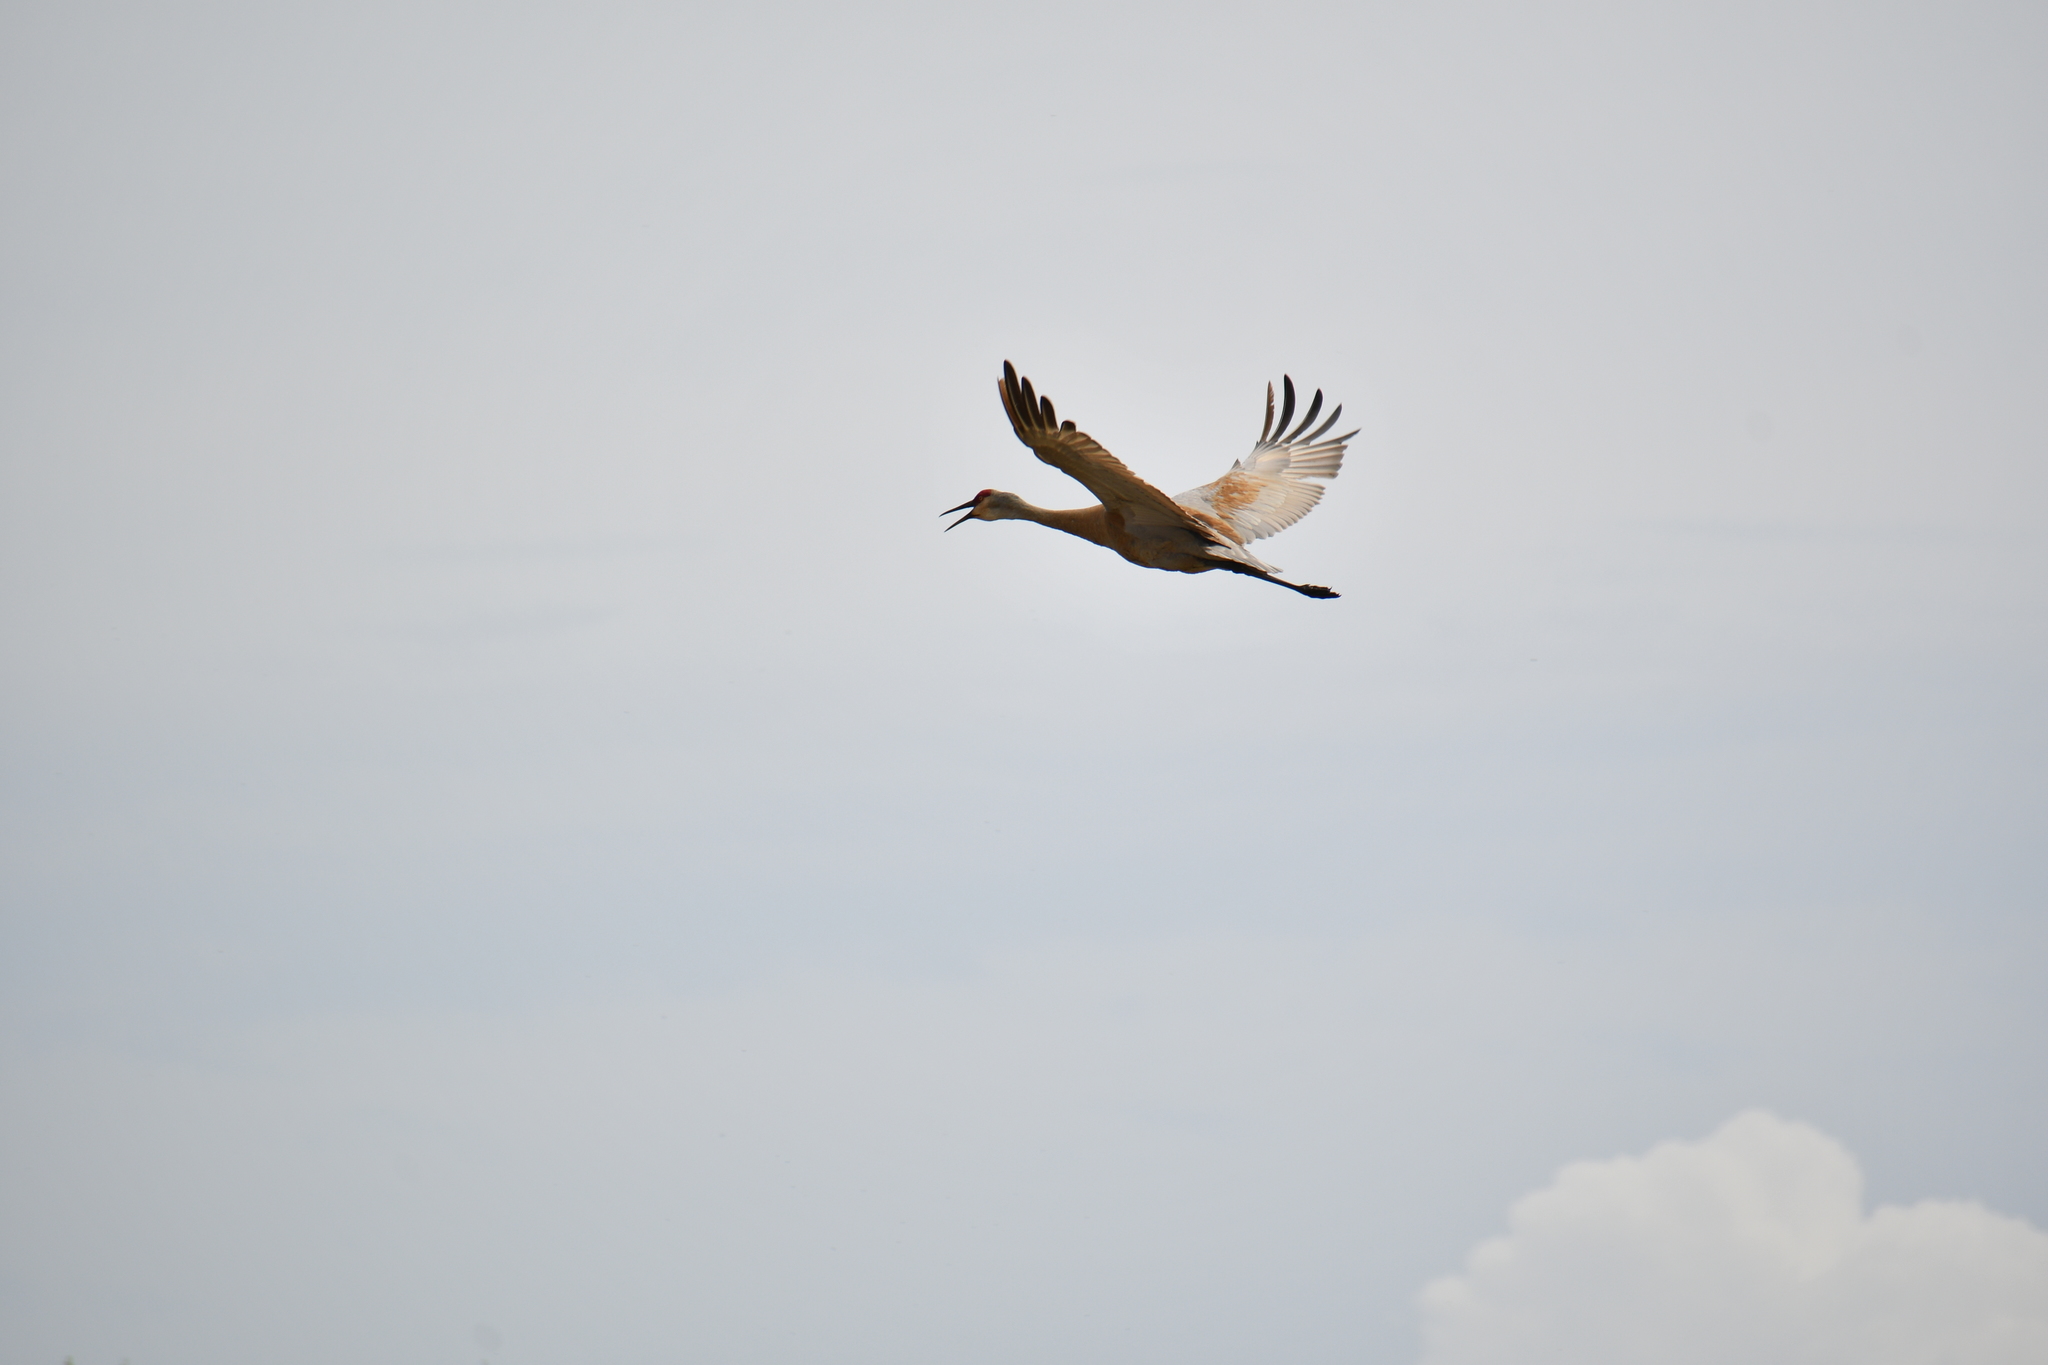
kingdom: Animalia
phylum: Chordata
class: Aves
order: Gruiformes
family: Gruidae
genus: Grus
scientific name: Grus canadensis
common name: Sandhill crane
